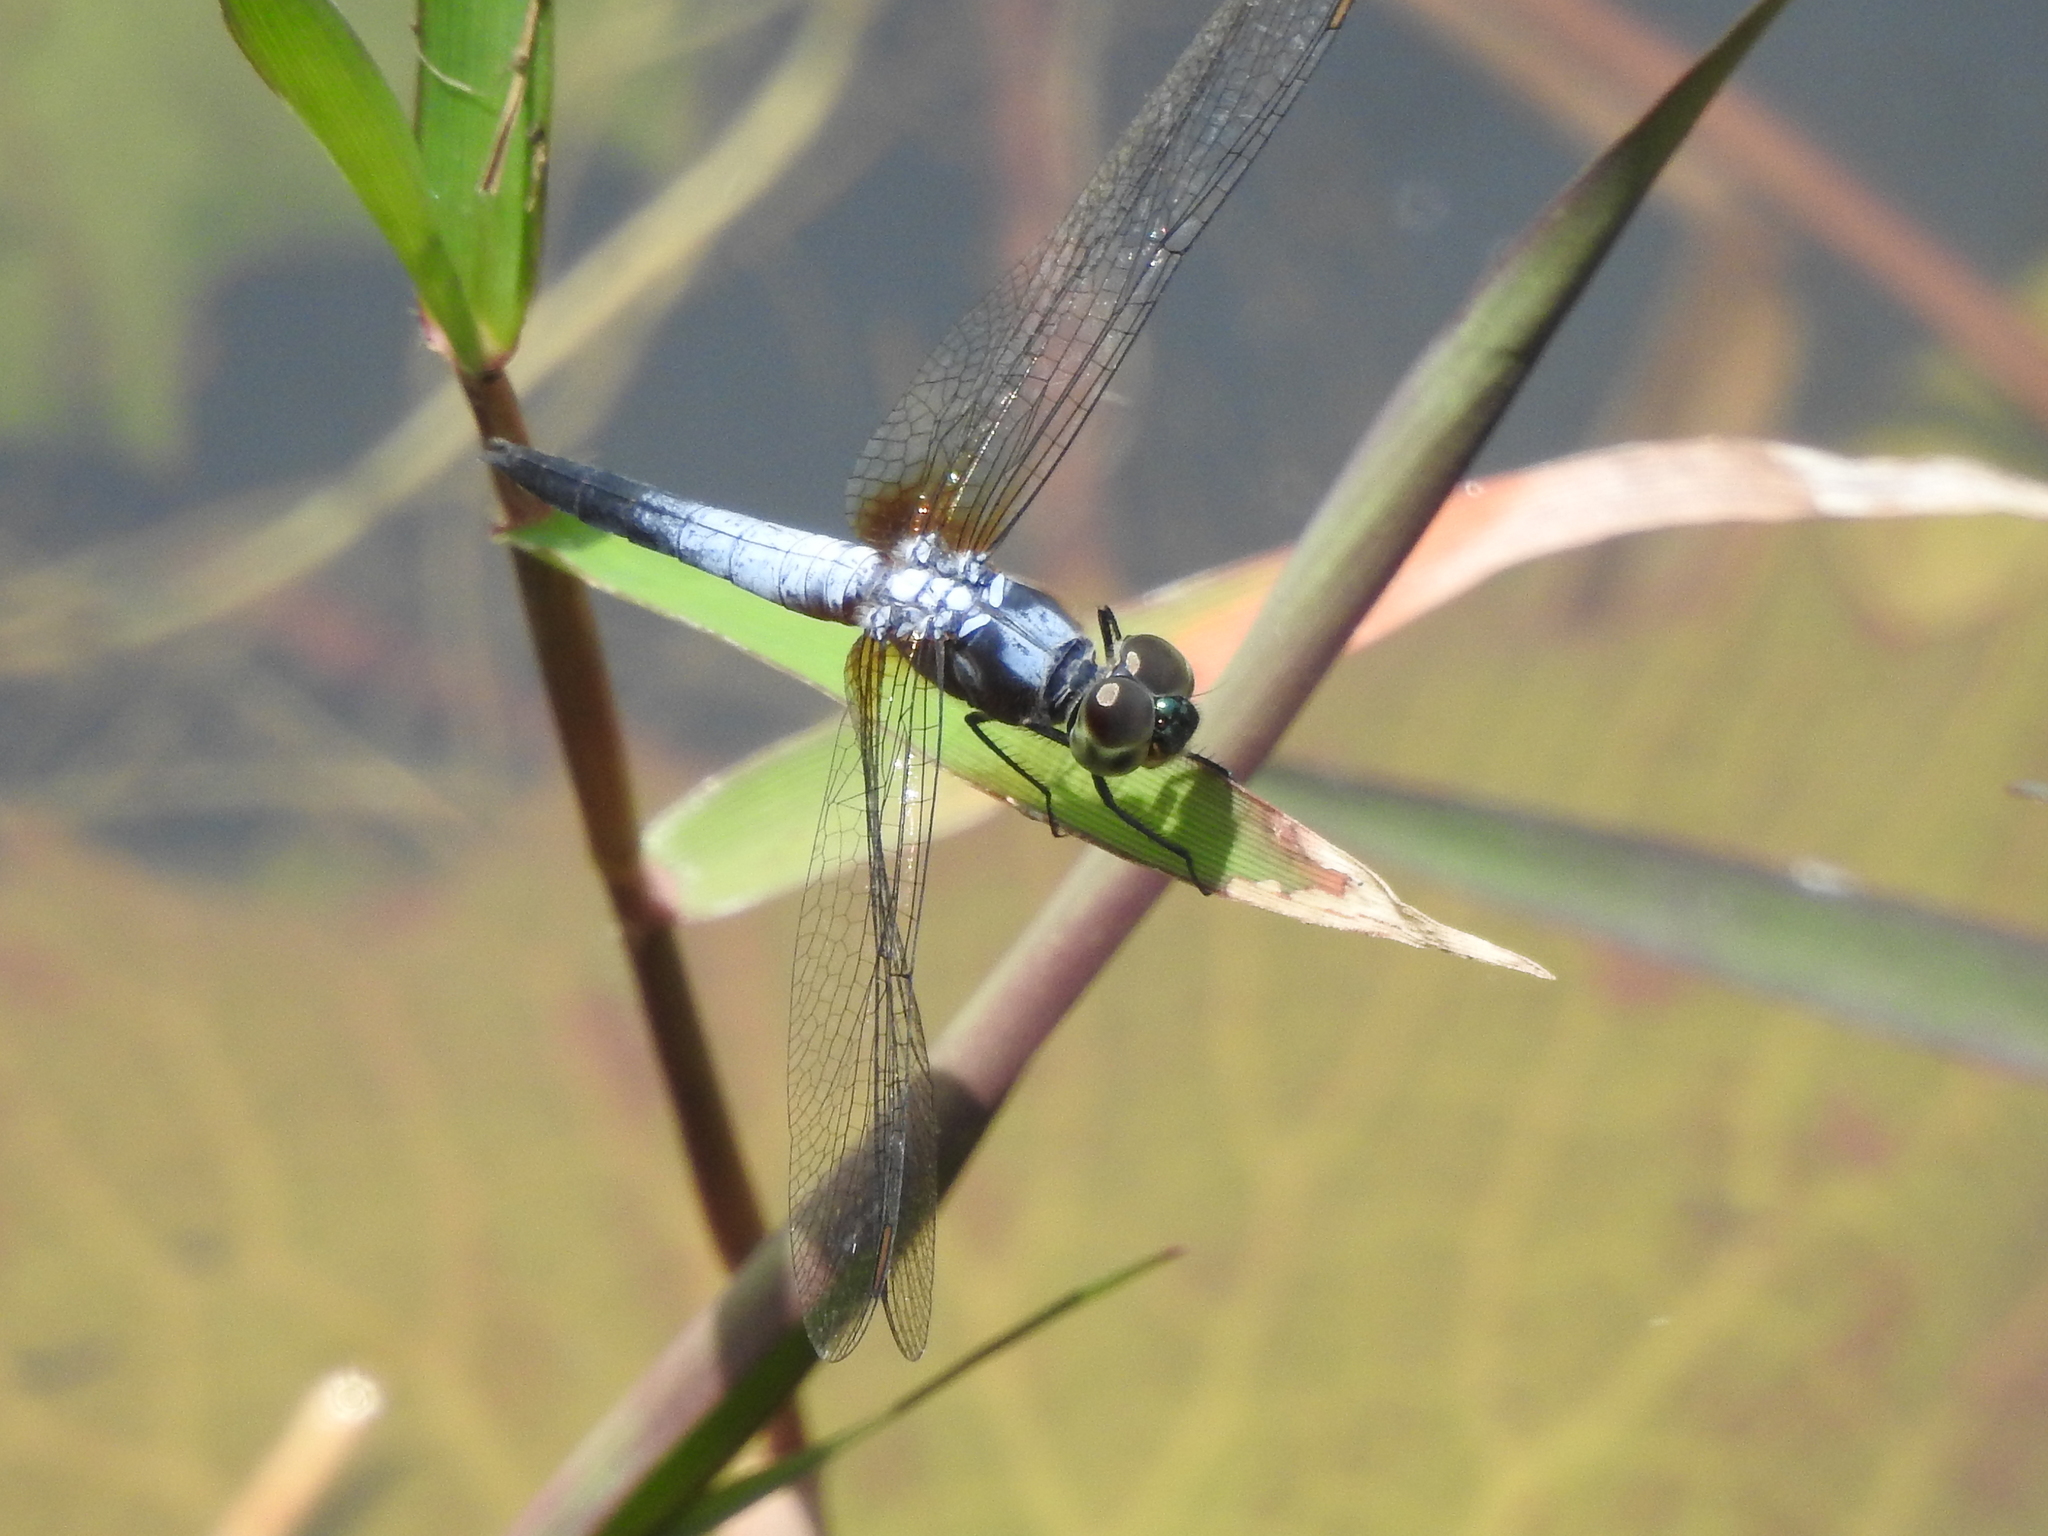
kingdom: Animalia
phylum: Arthropoda
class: Insecta
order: Odonata
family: Libellulidae
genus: Brachydiplax
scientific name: Brachydiplax chalybea
